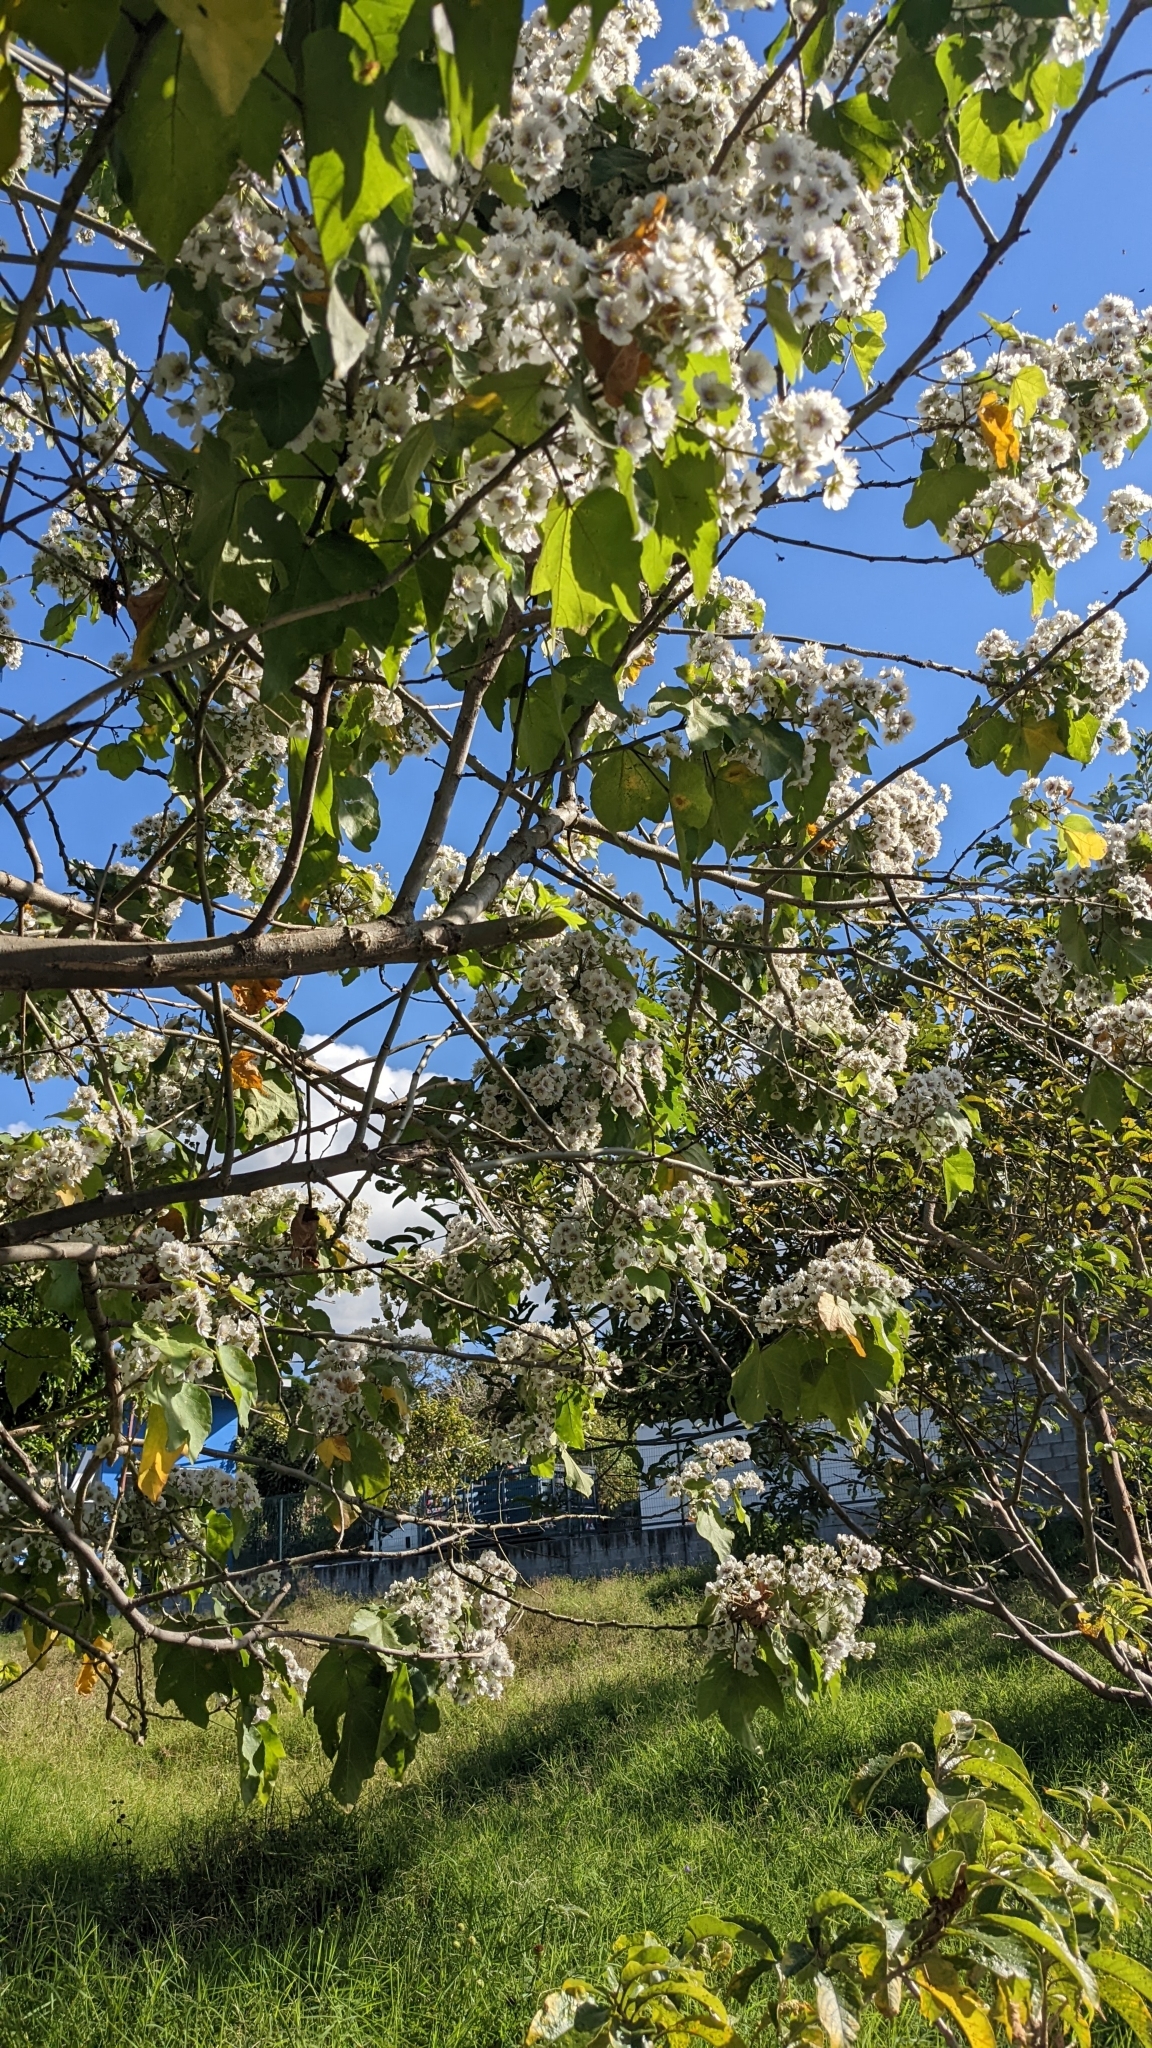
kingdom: Plantae
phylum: Tracheophyta
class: Magnoliopsida
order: Malvales
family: Malvaceae
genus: Robinsonella
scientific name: Robinsonella lindeniana
